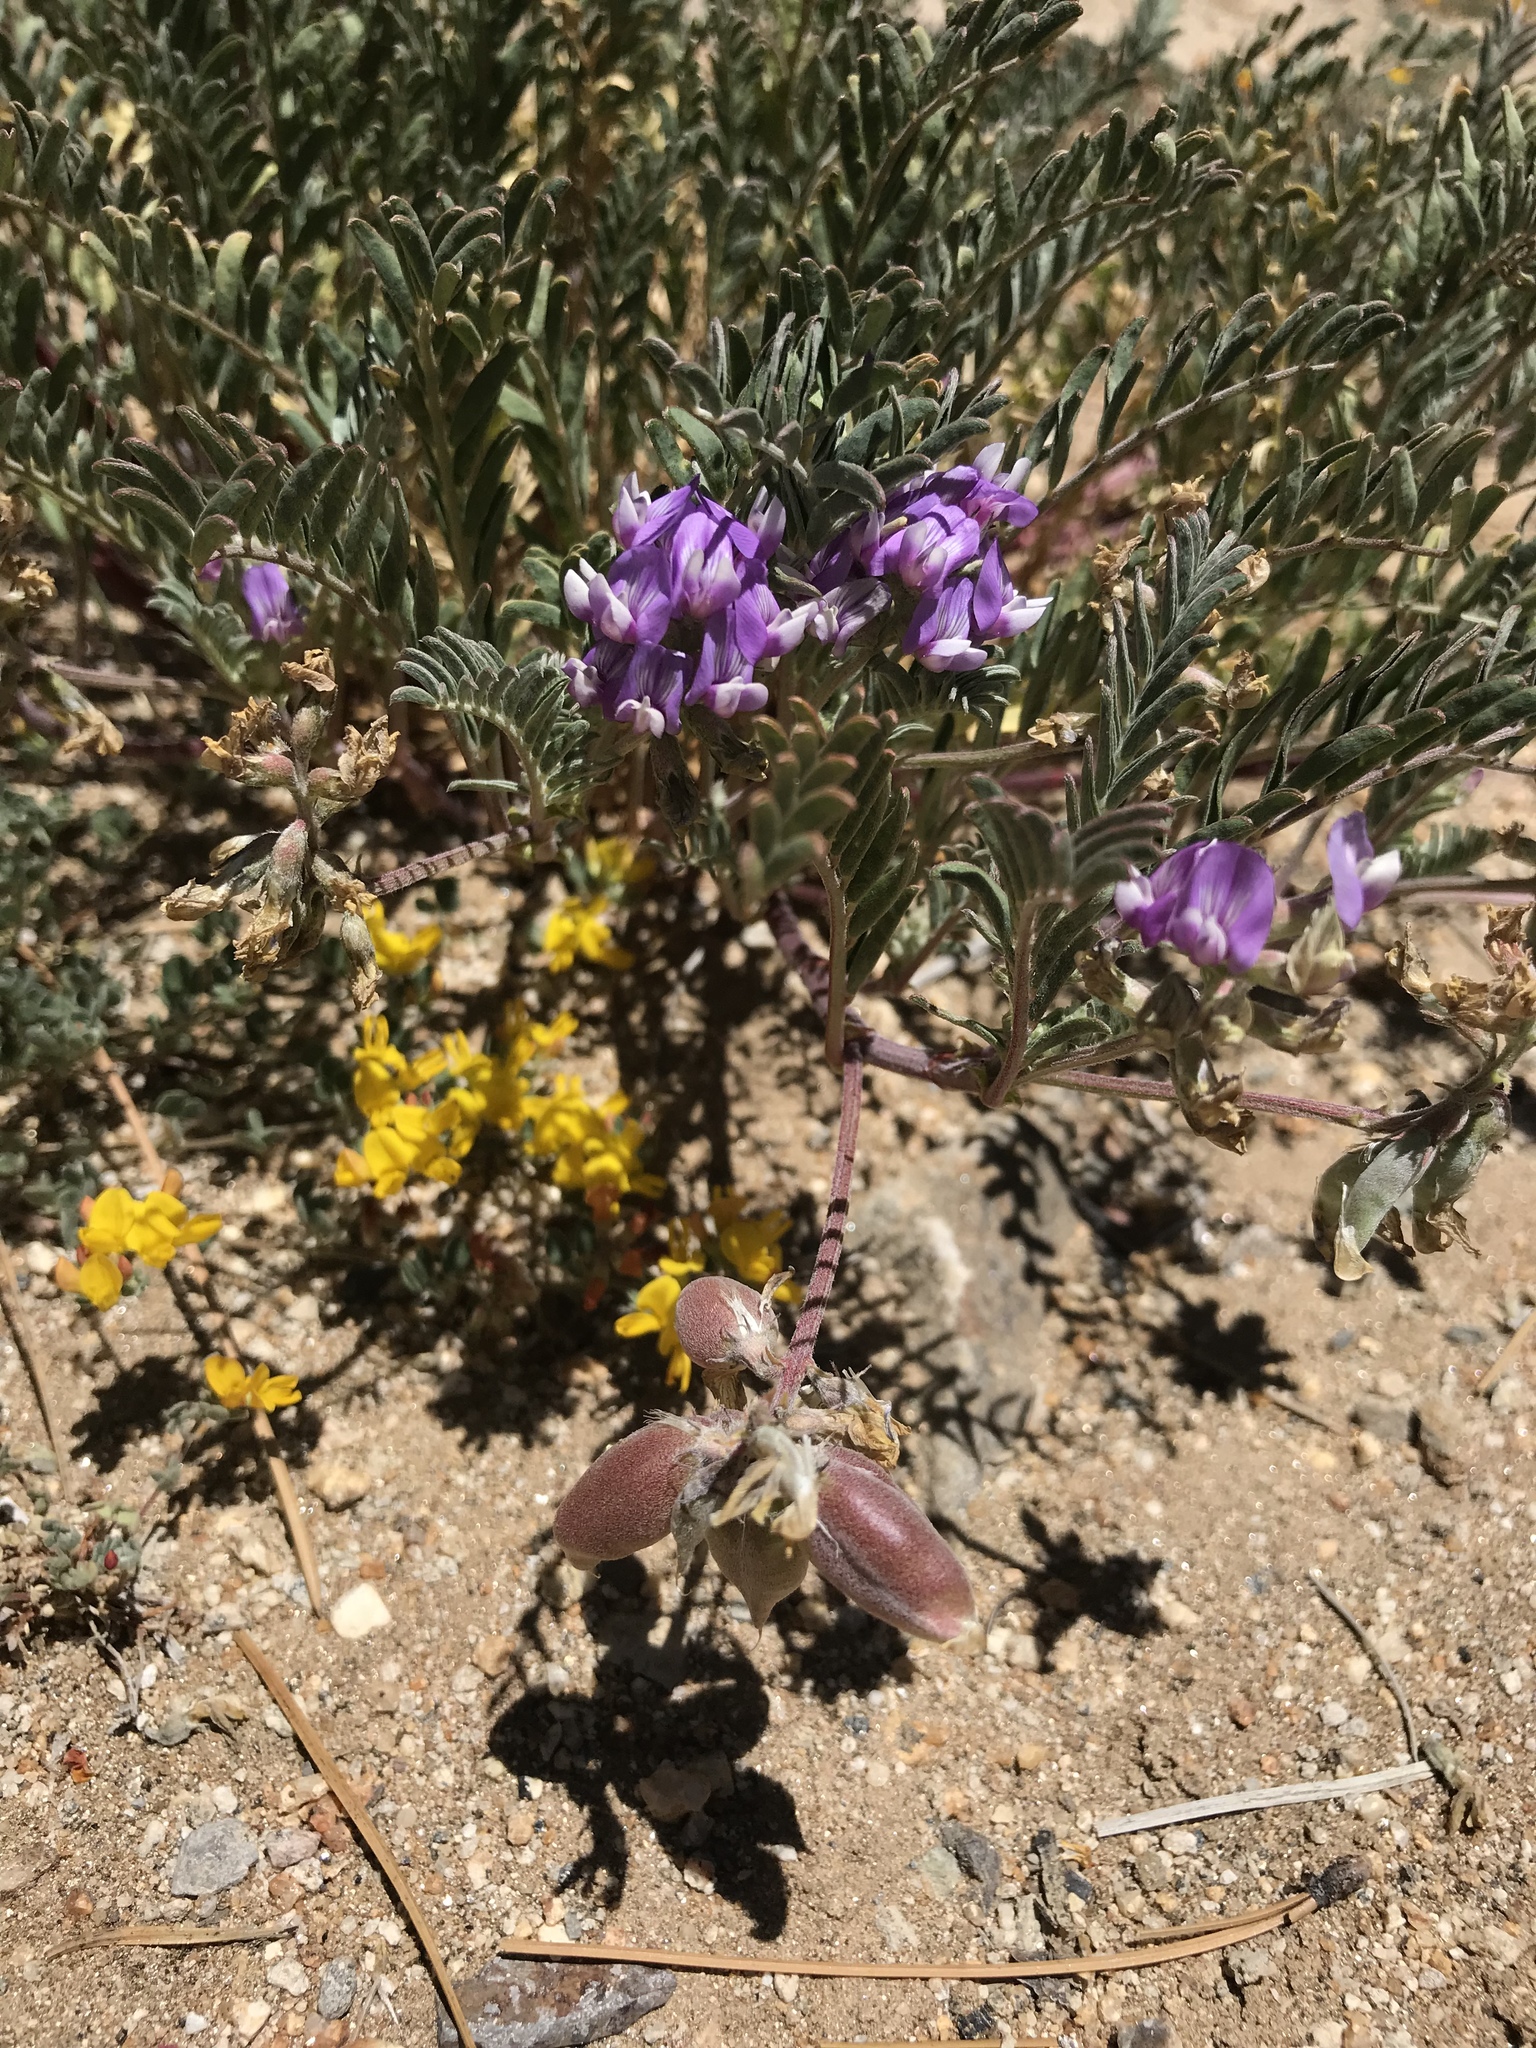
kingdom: Plantae
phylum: Tracheophyta
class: Magnoliopsida
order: Fabales
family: Fabaceae
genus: Astragalus
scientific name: Astragalus gruinus
